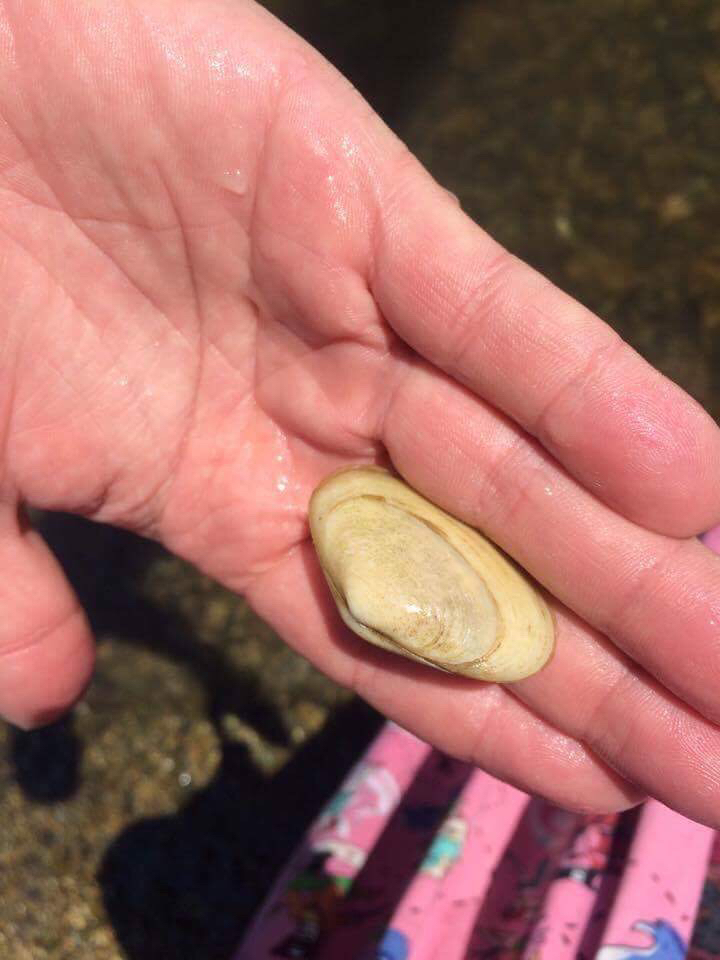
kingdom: Animalia
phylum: Mollusca
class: Bivalvia
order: Venerida
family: Mesodesmatidae
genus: Paphies
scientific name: Paphies australis
